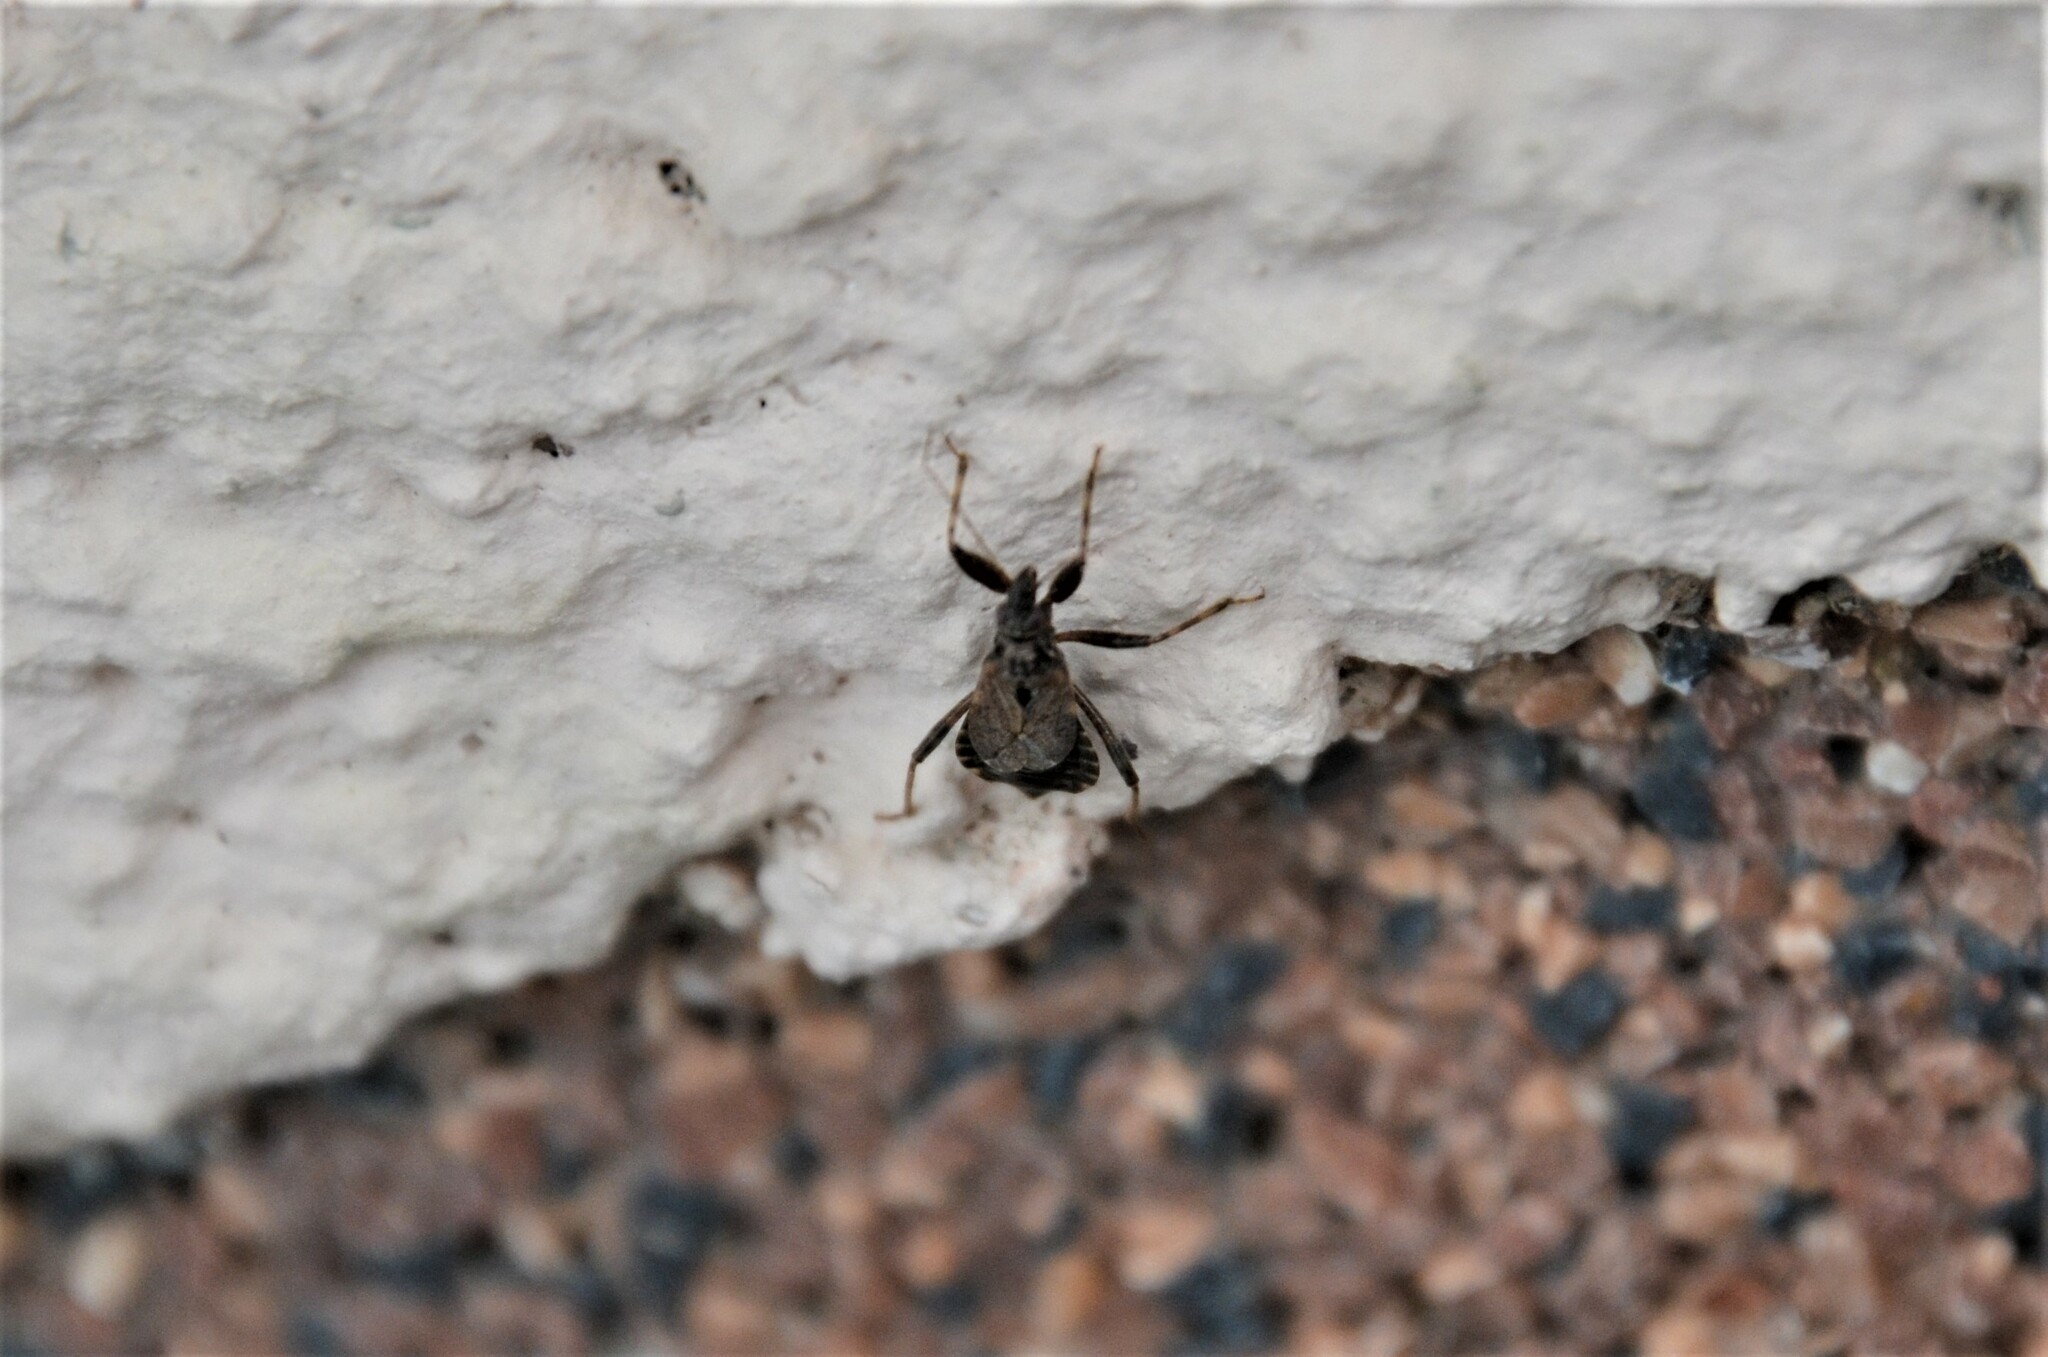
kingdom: Animalia
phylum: Arthropoda
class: Insecta
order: Hemiptera
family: Nabidae
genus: Himacerus
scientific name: Himacerus mirmicoides
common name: Ant damsel bug
